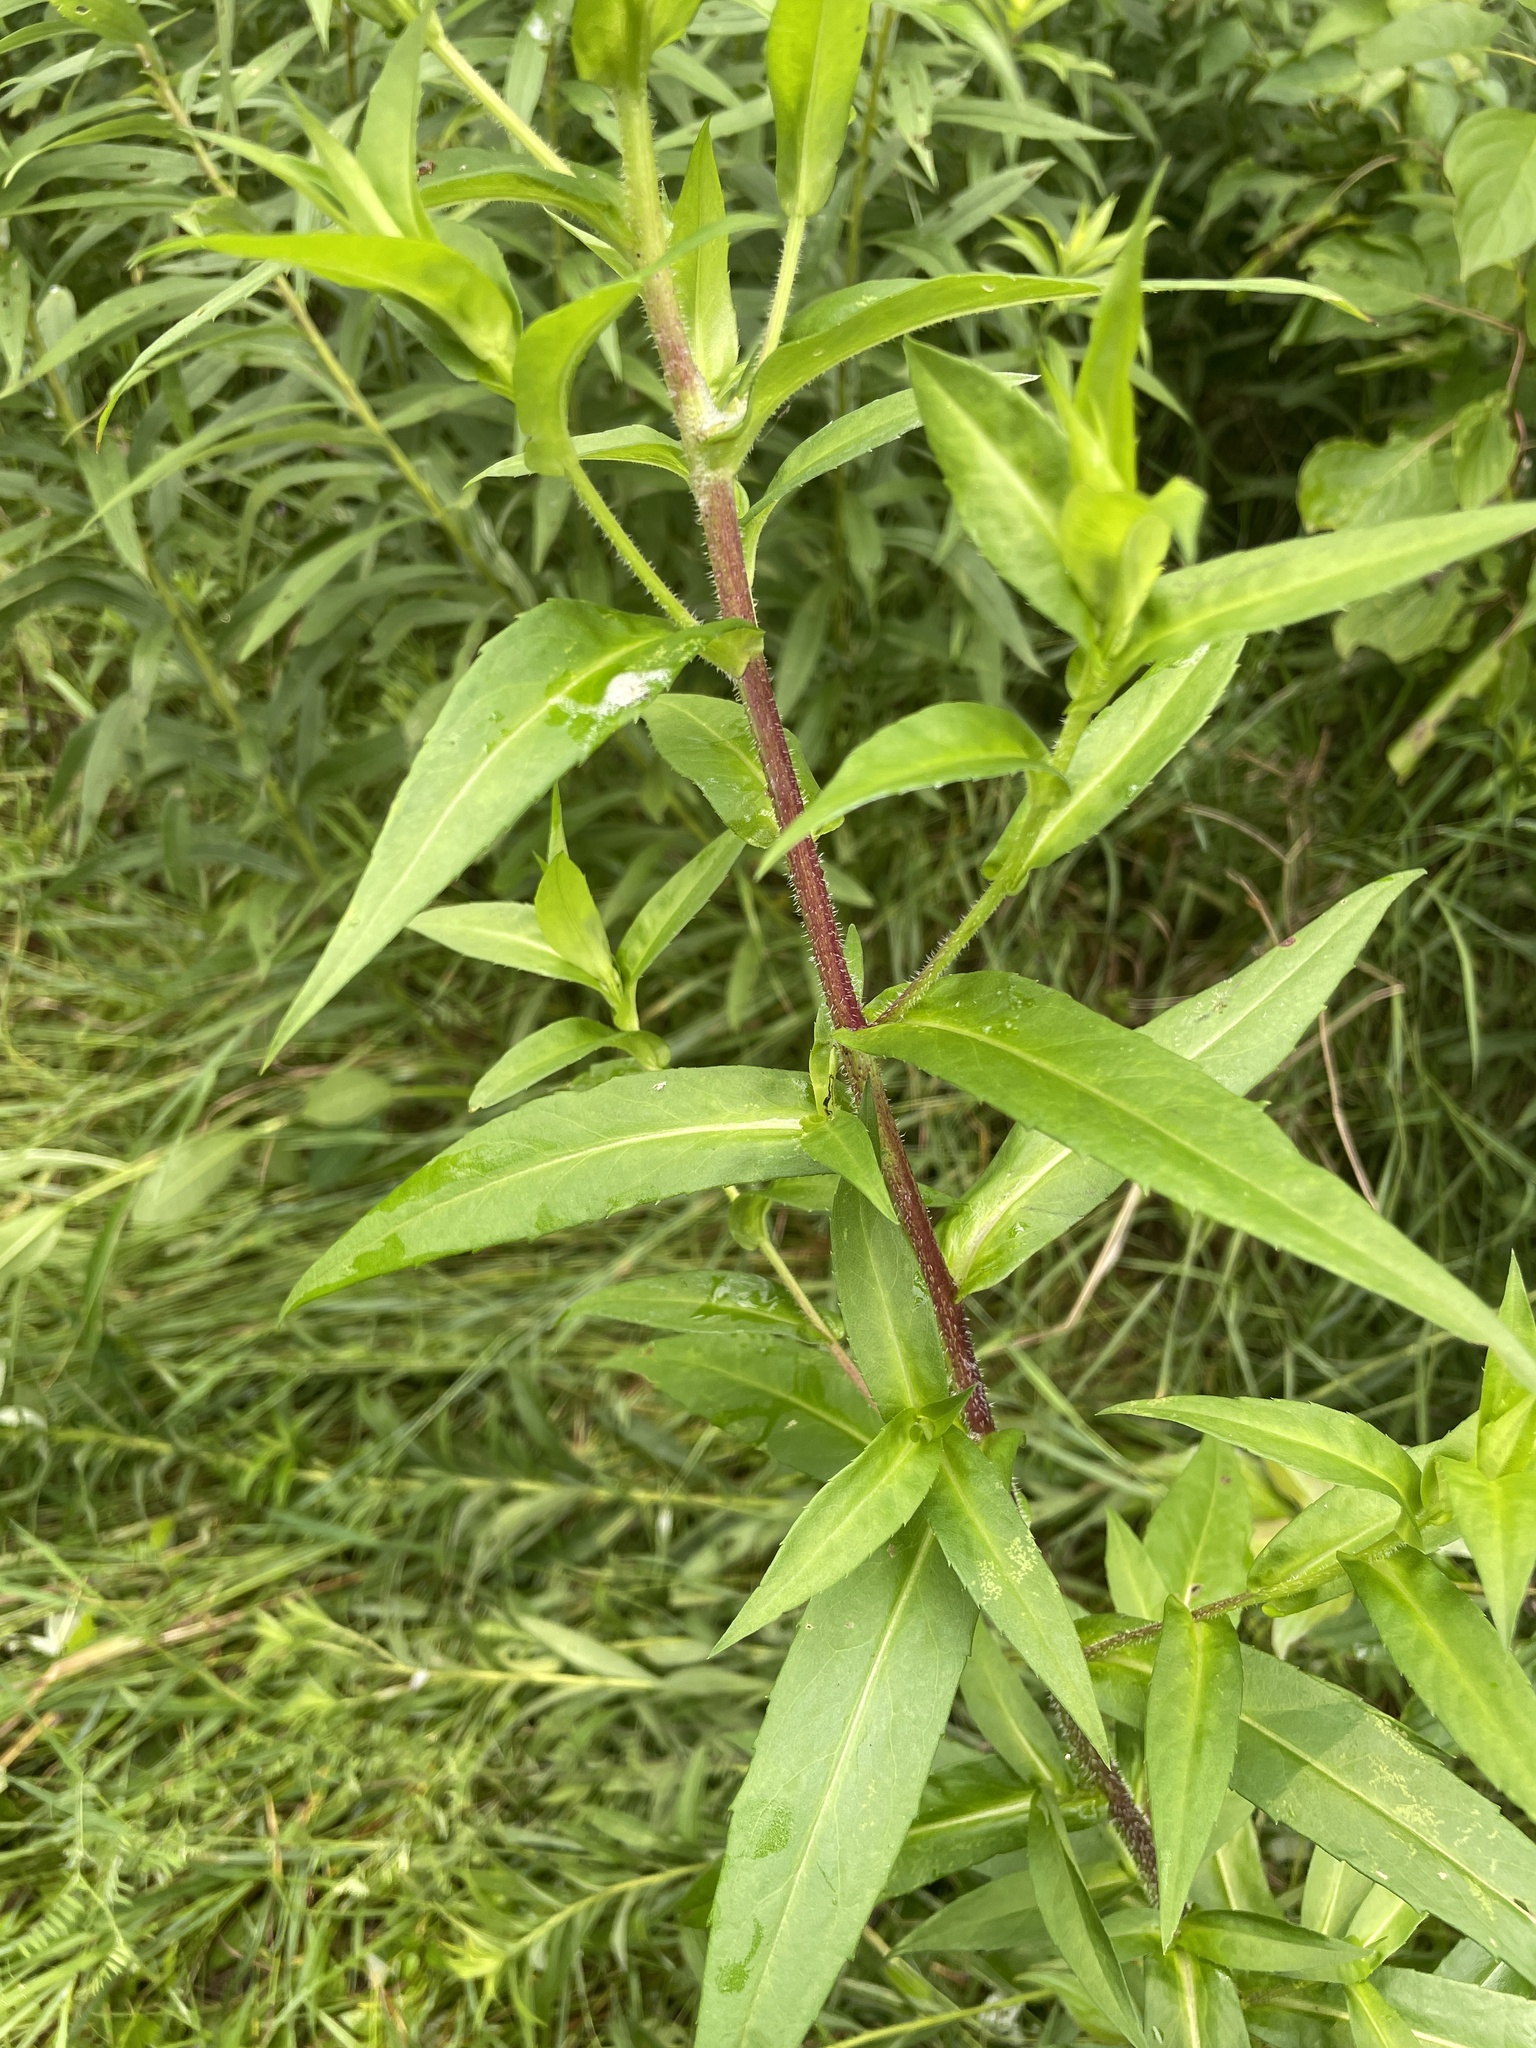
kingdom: Plantae
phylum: Tracheophyta
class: Magnoliopsida
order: Asterales
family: Asteraceae
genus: Symphyotrichum
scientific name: Symphyotrichum puniceum
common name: Bog aster
